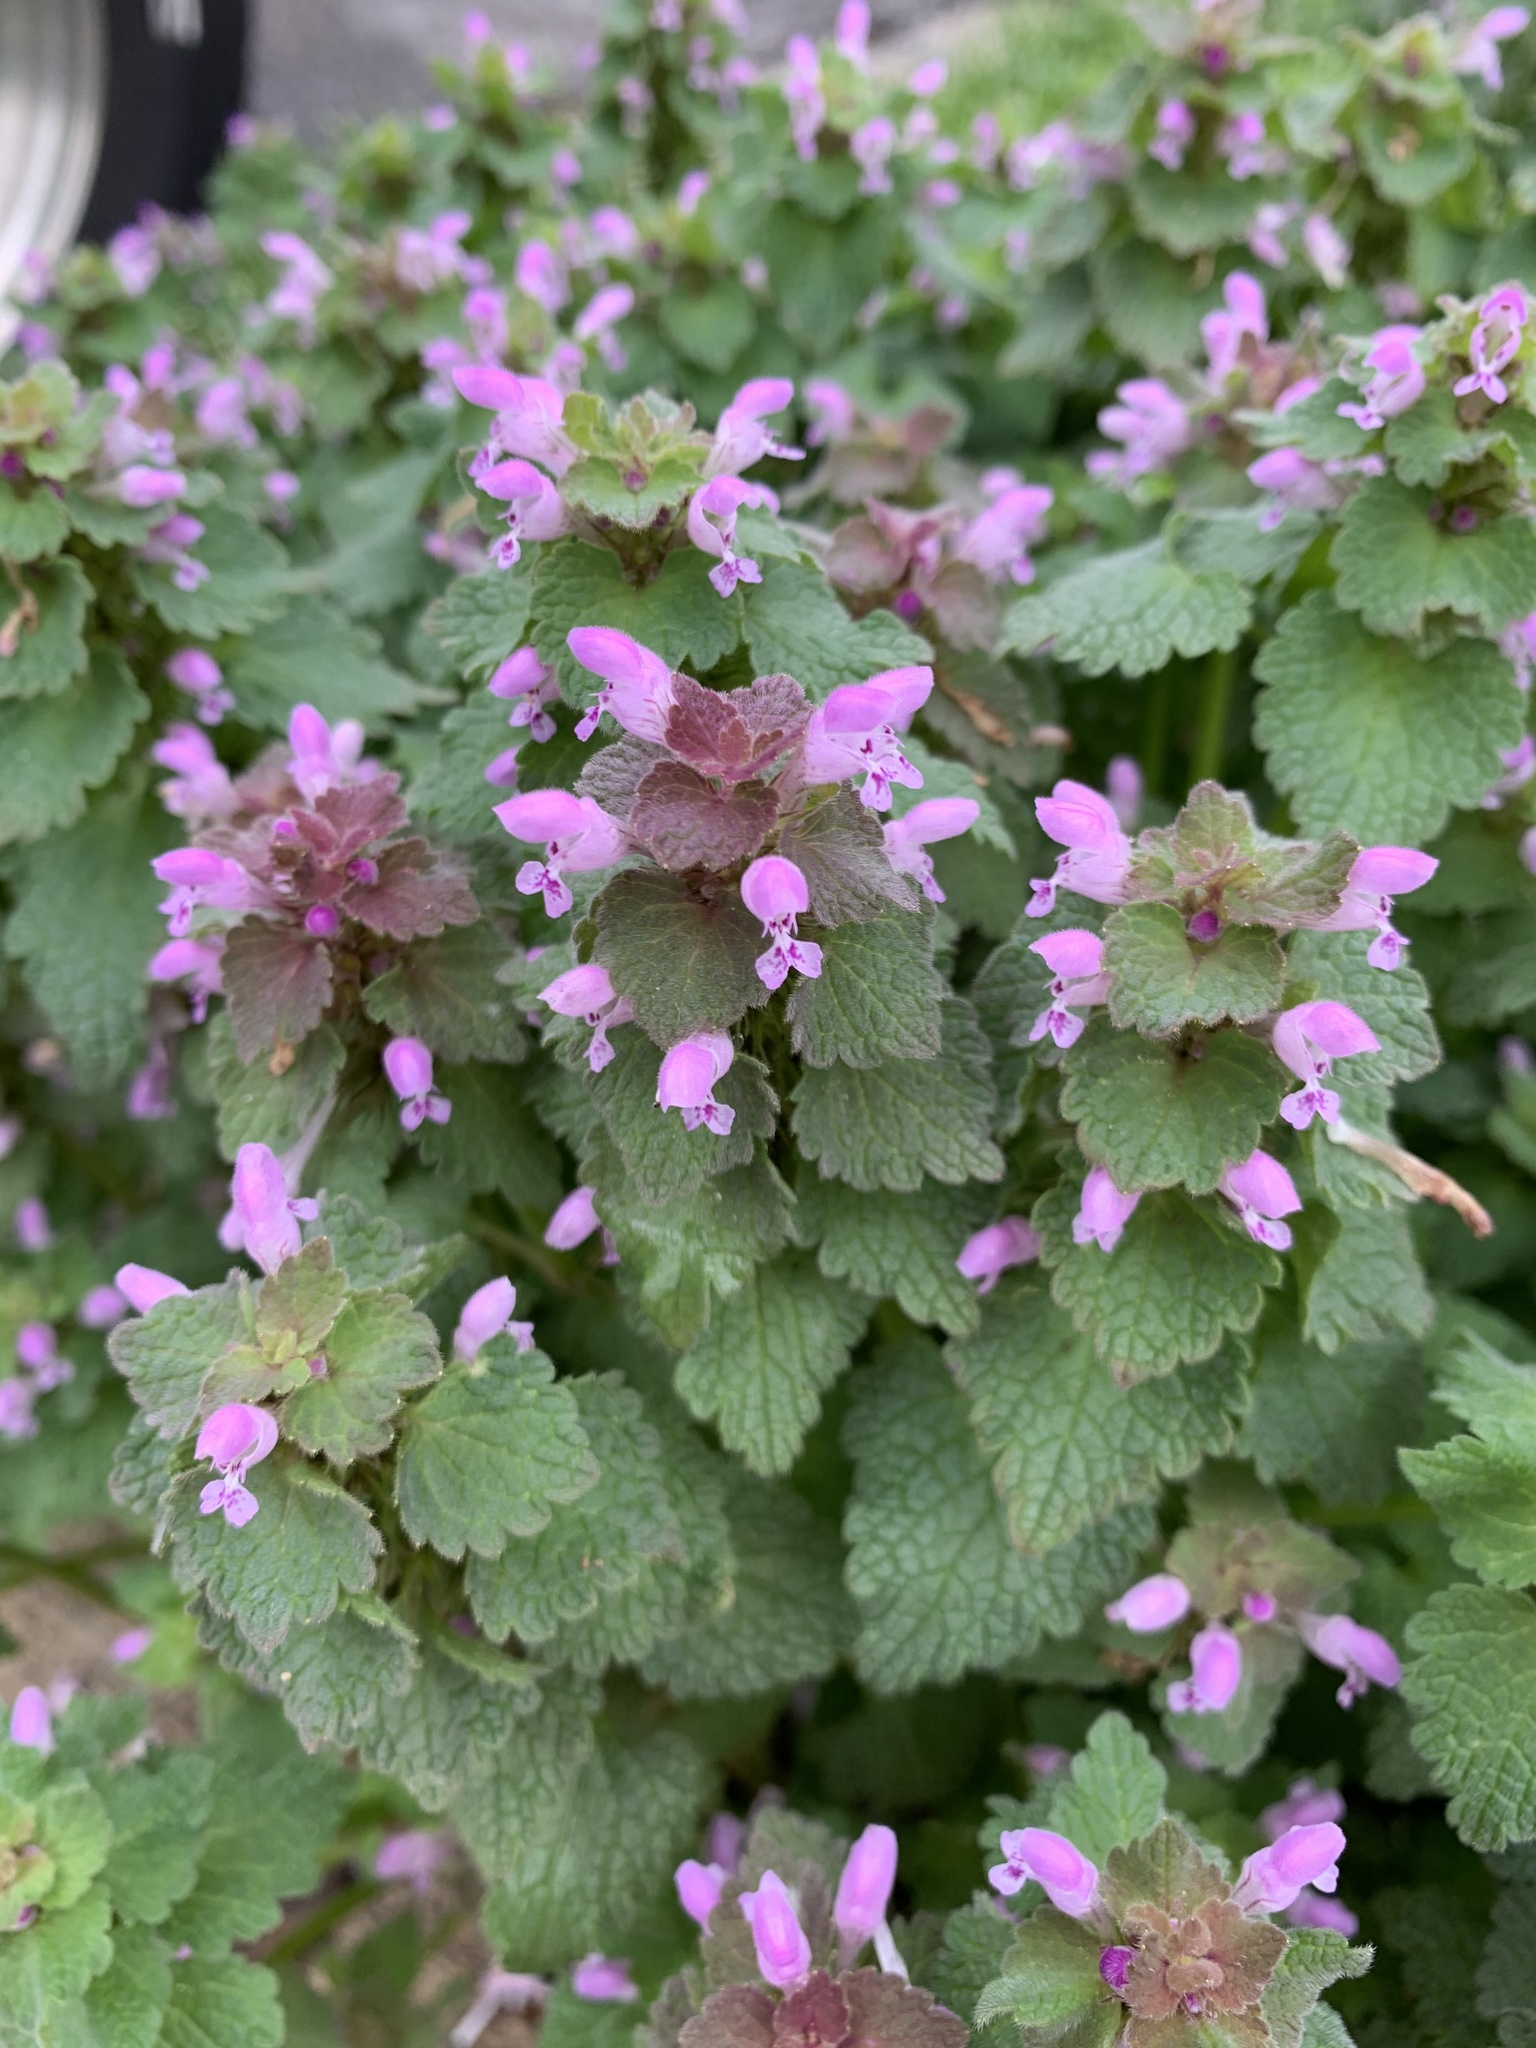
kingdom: Plantae
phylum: Tracheophyta
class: Magnoliopsida
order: Lamiales
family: Lamiaceae
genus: Lamium
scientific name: Lamium purpureum
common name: Red dead-nettle
